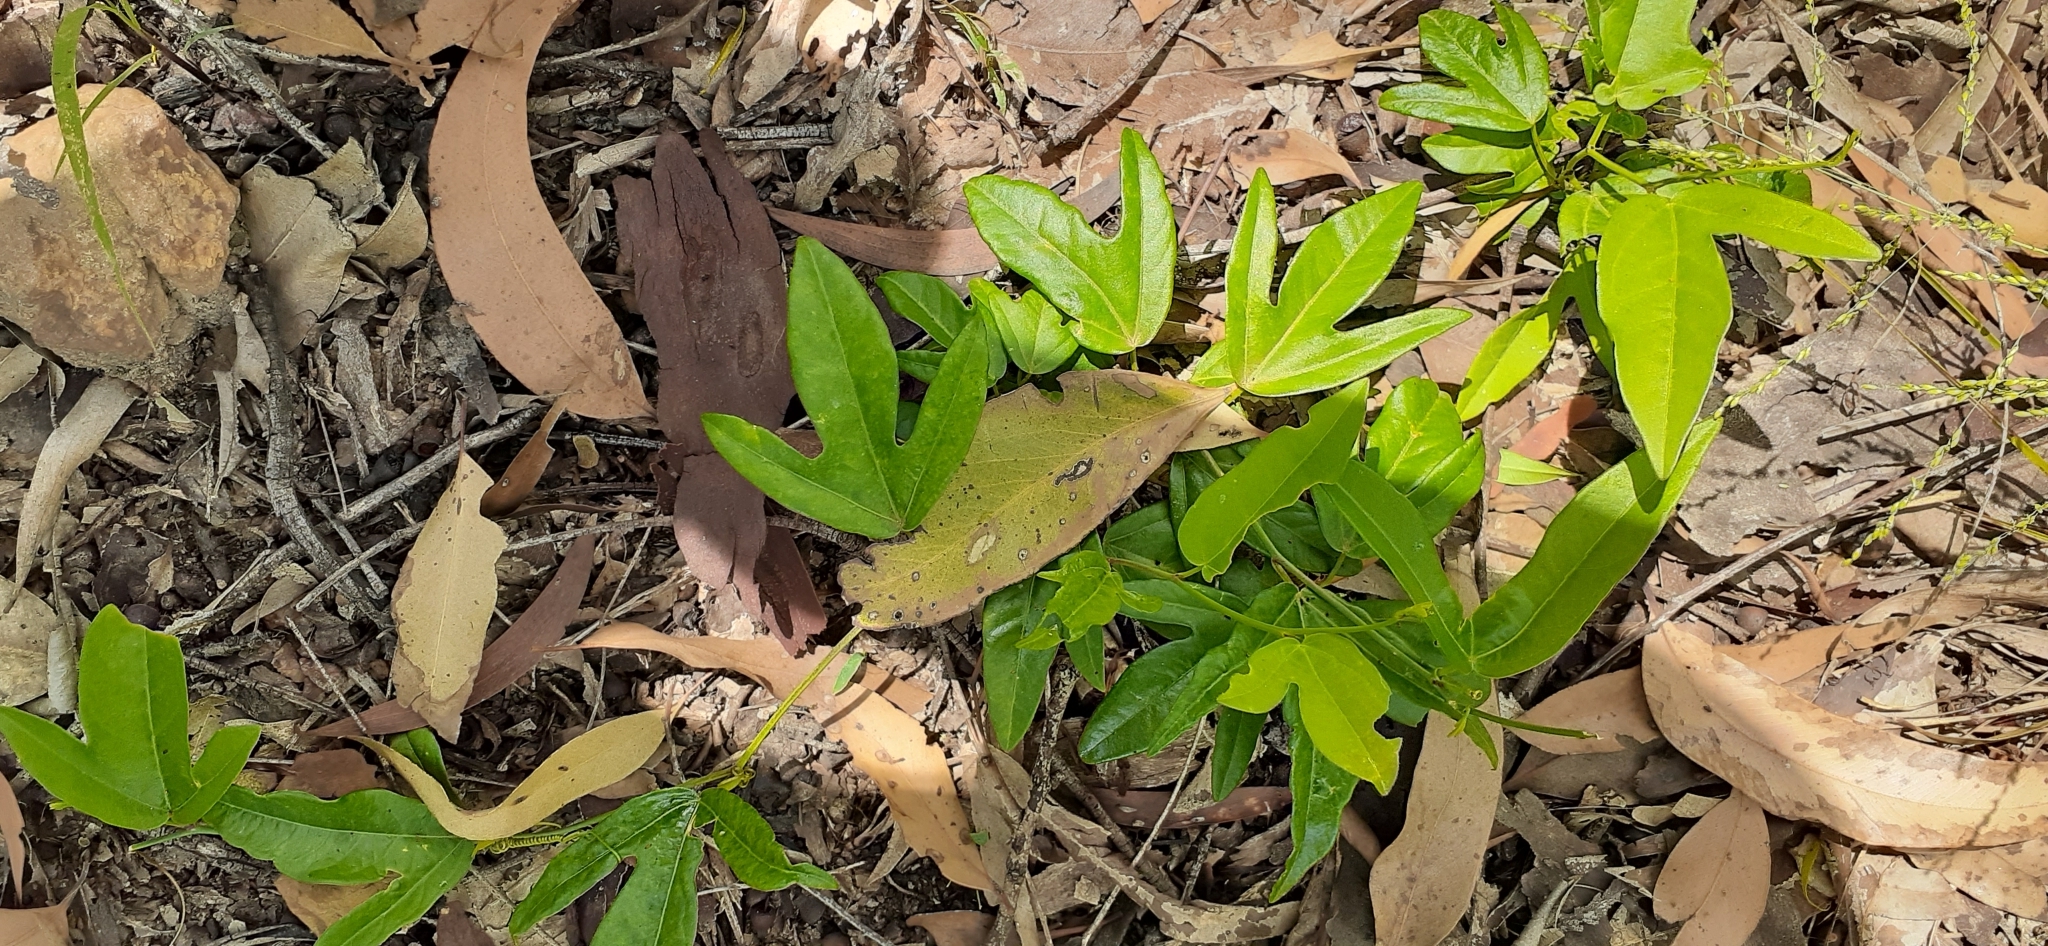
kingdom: Plantae
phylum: Tracheophyta
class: Magnoliopsida
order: Malpighiales
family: Passifloraceae
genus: Passiflora
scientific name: Passiflora pallida
